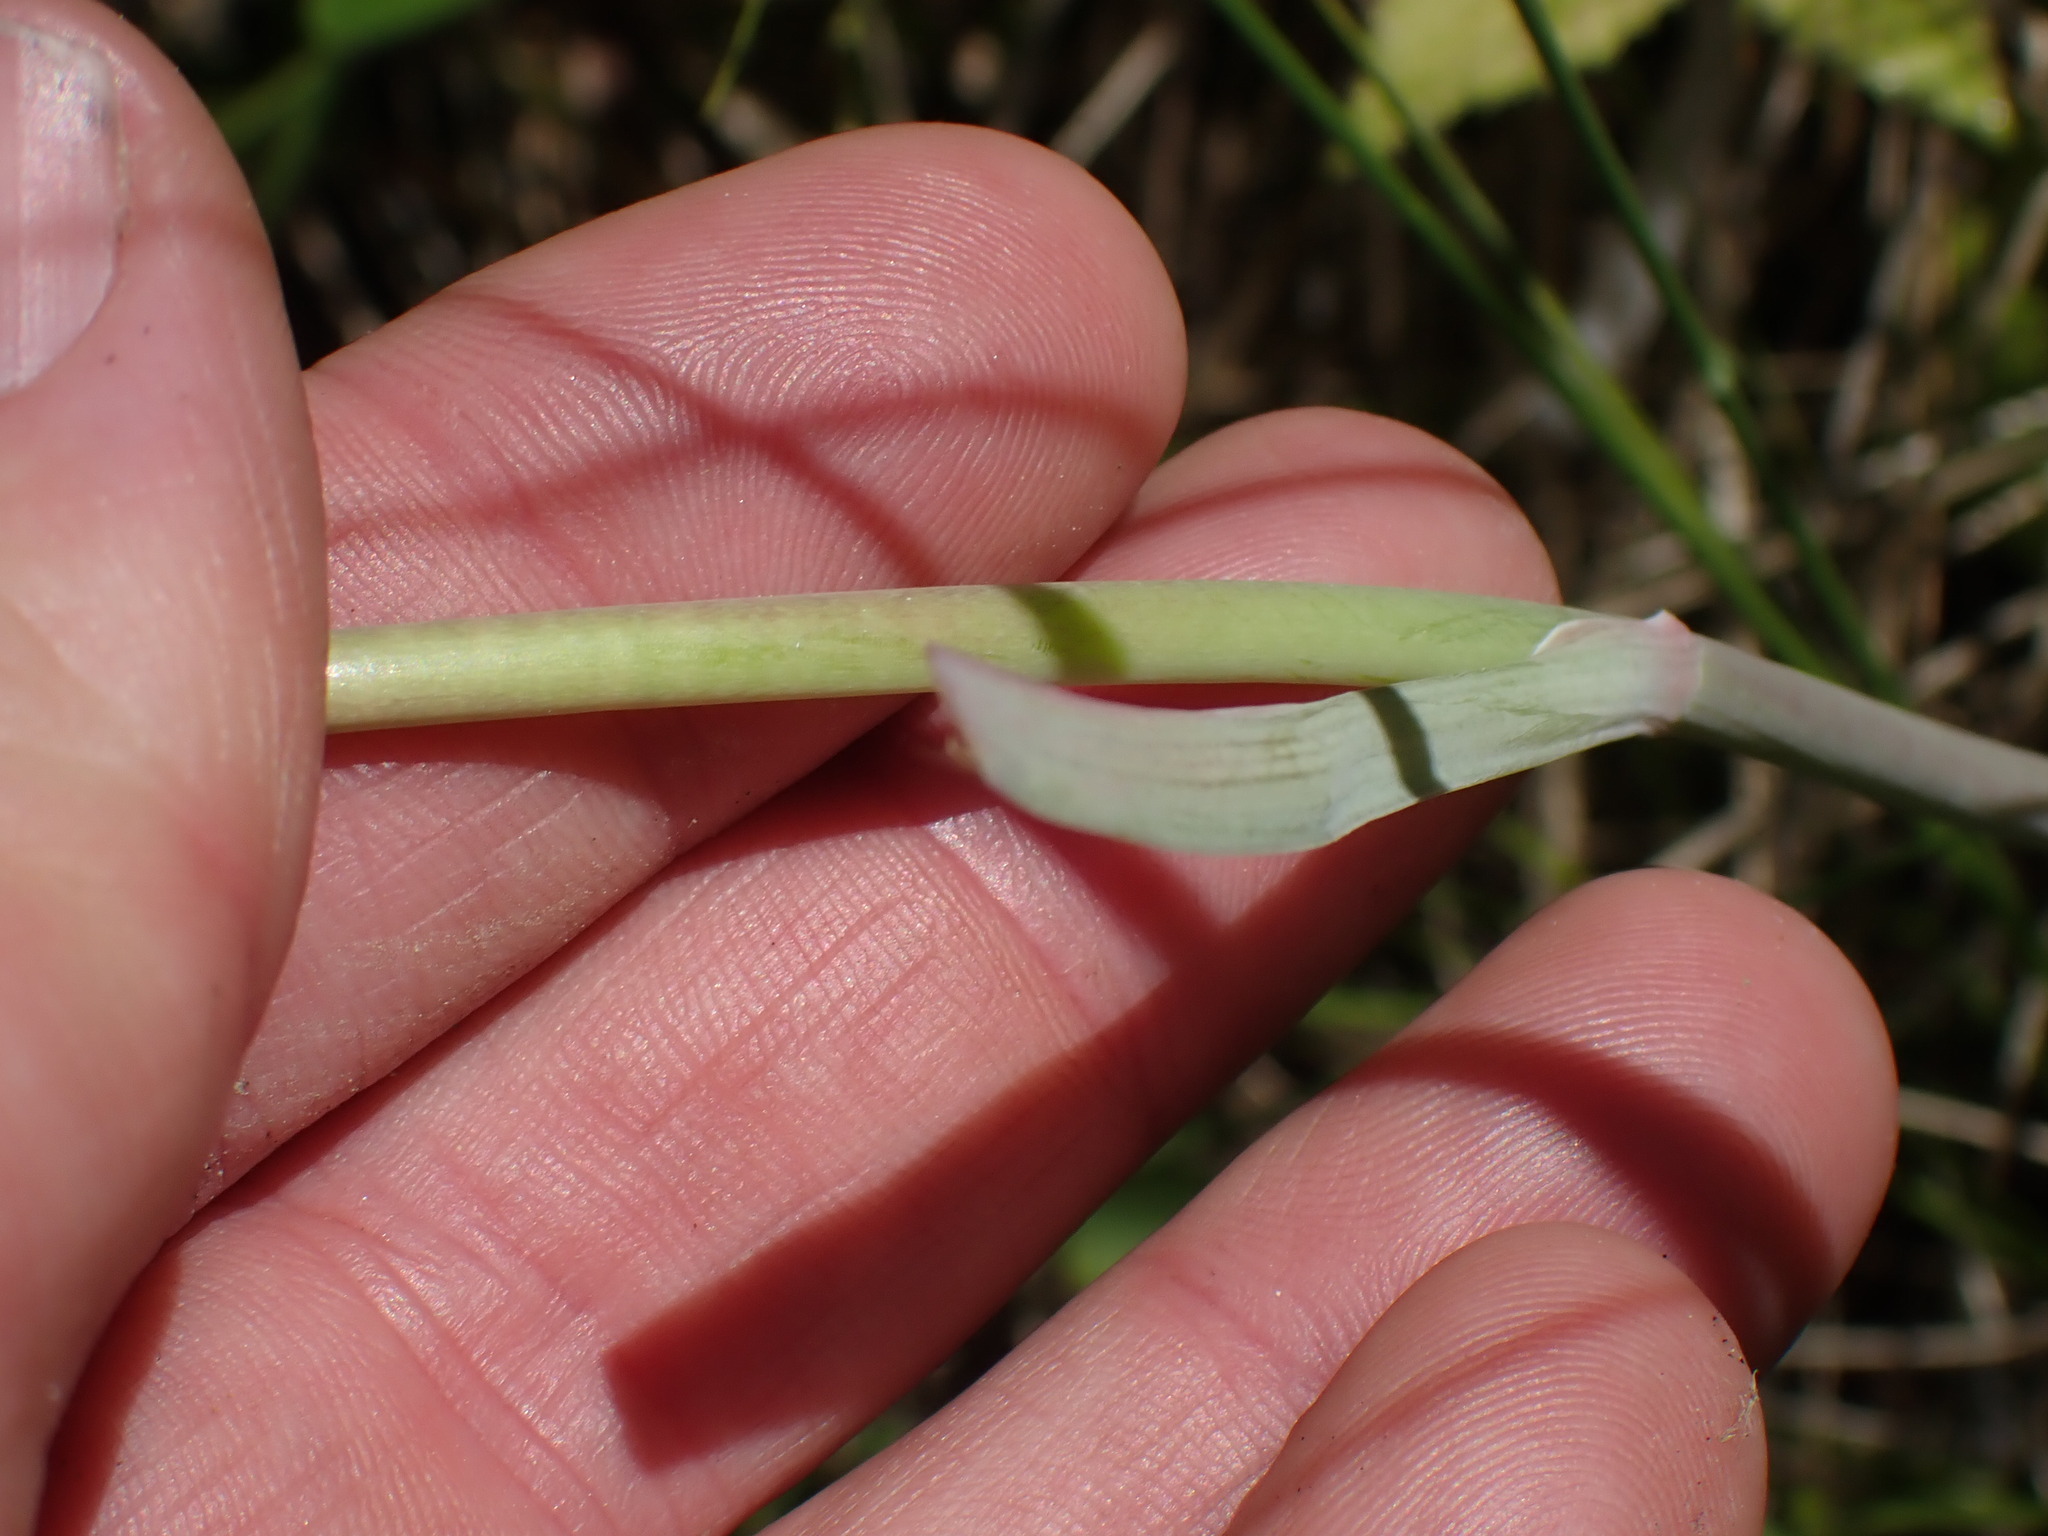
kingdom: Plantae
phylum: Tracheophyta
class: Liliopsida
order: Liliales
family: Melanthiaceae
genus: Anticlea
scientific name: Anticlea elegans
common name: Mountain death camas
